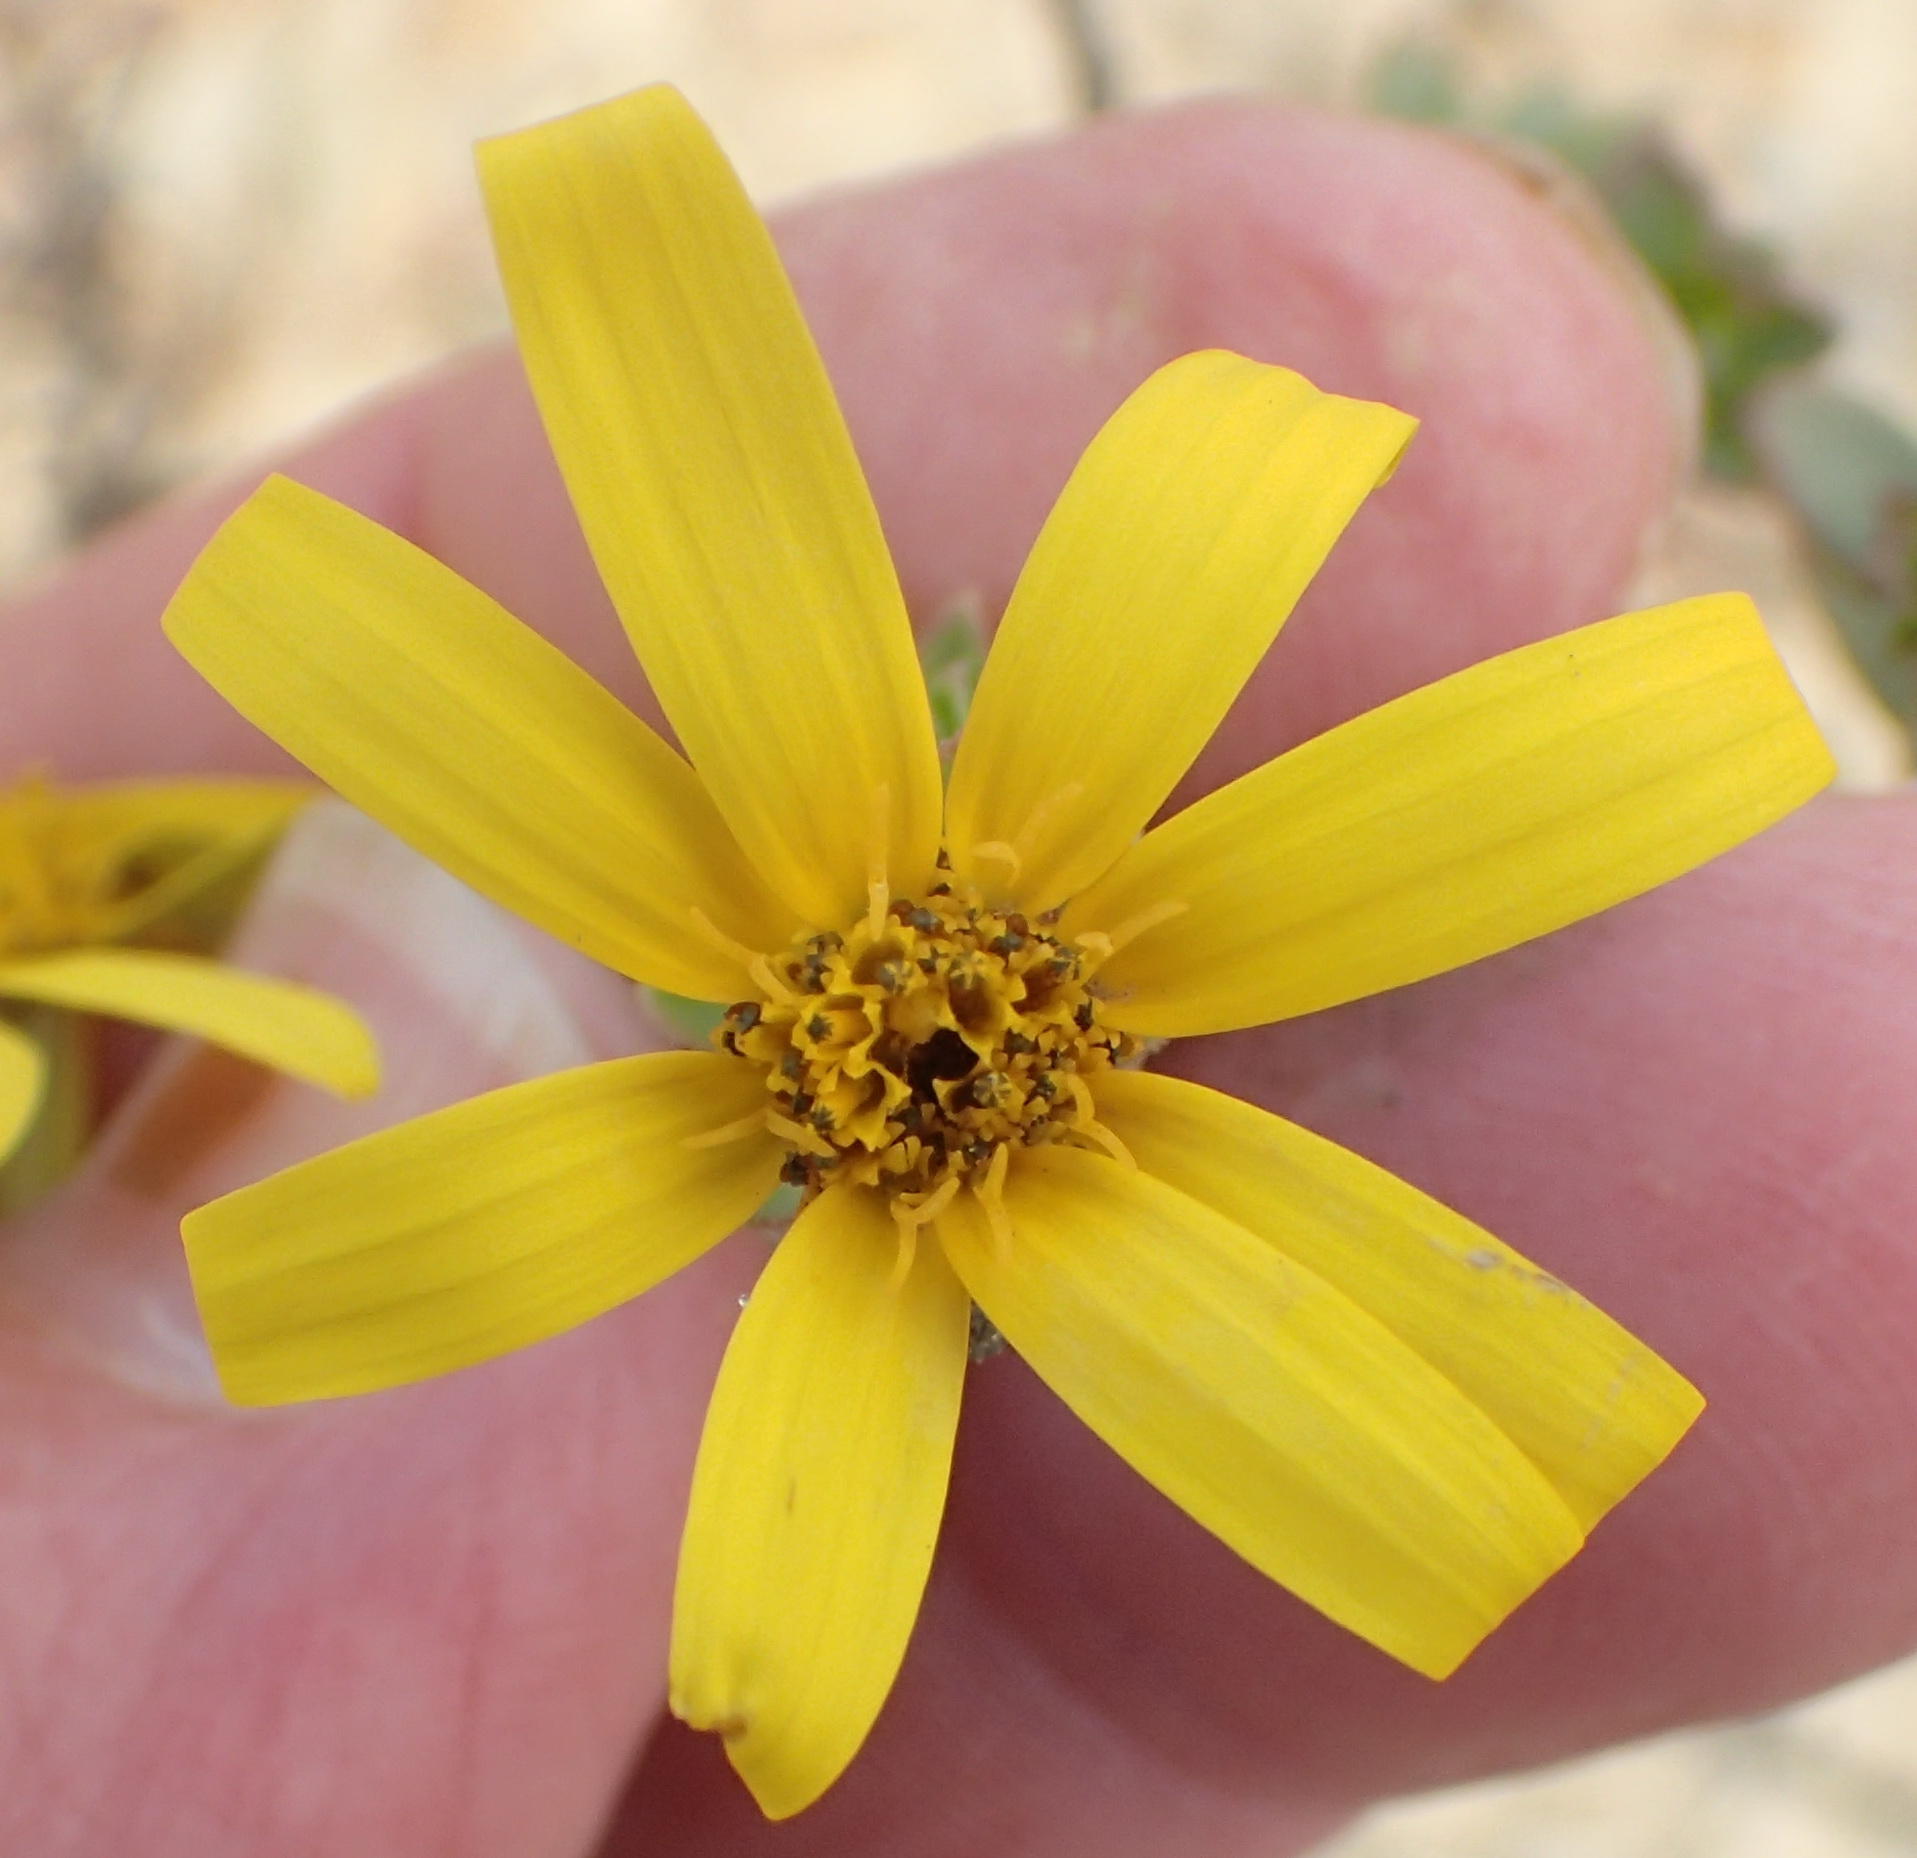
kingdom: Plantae
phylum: Tracheophyta
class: Magnoliopsida
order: Asterales
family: Asteraceae
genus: Osteospermum
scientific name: Osteospermum polygaloides
